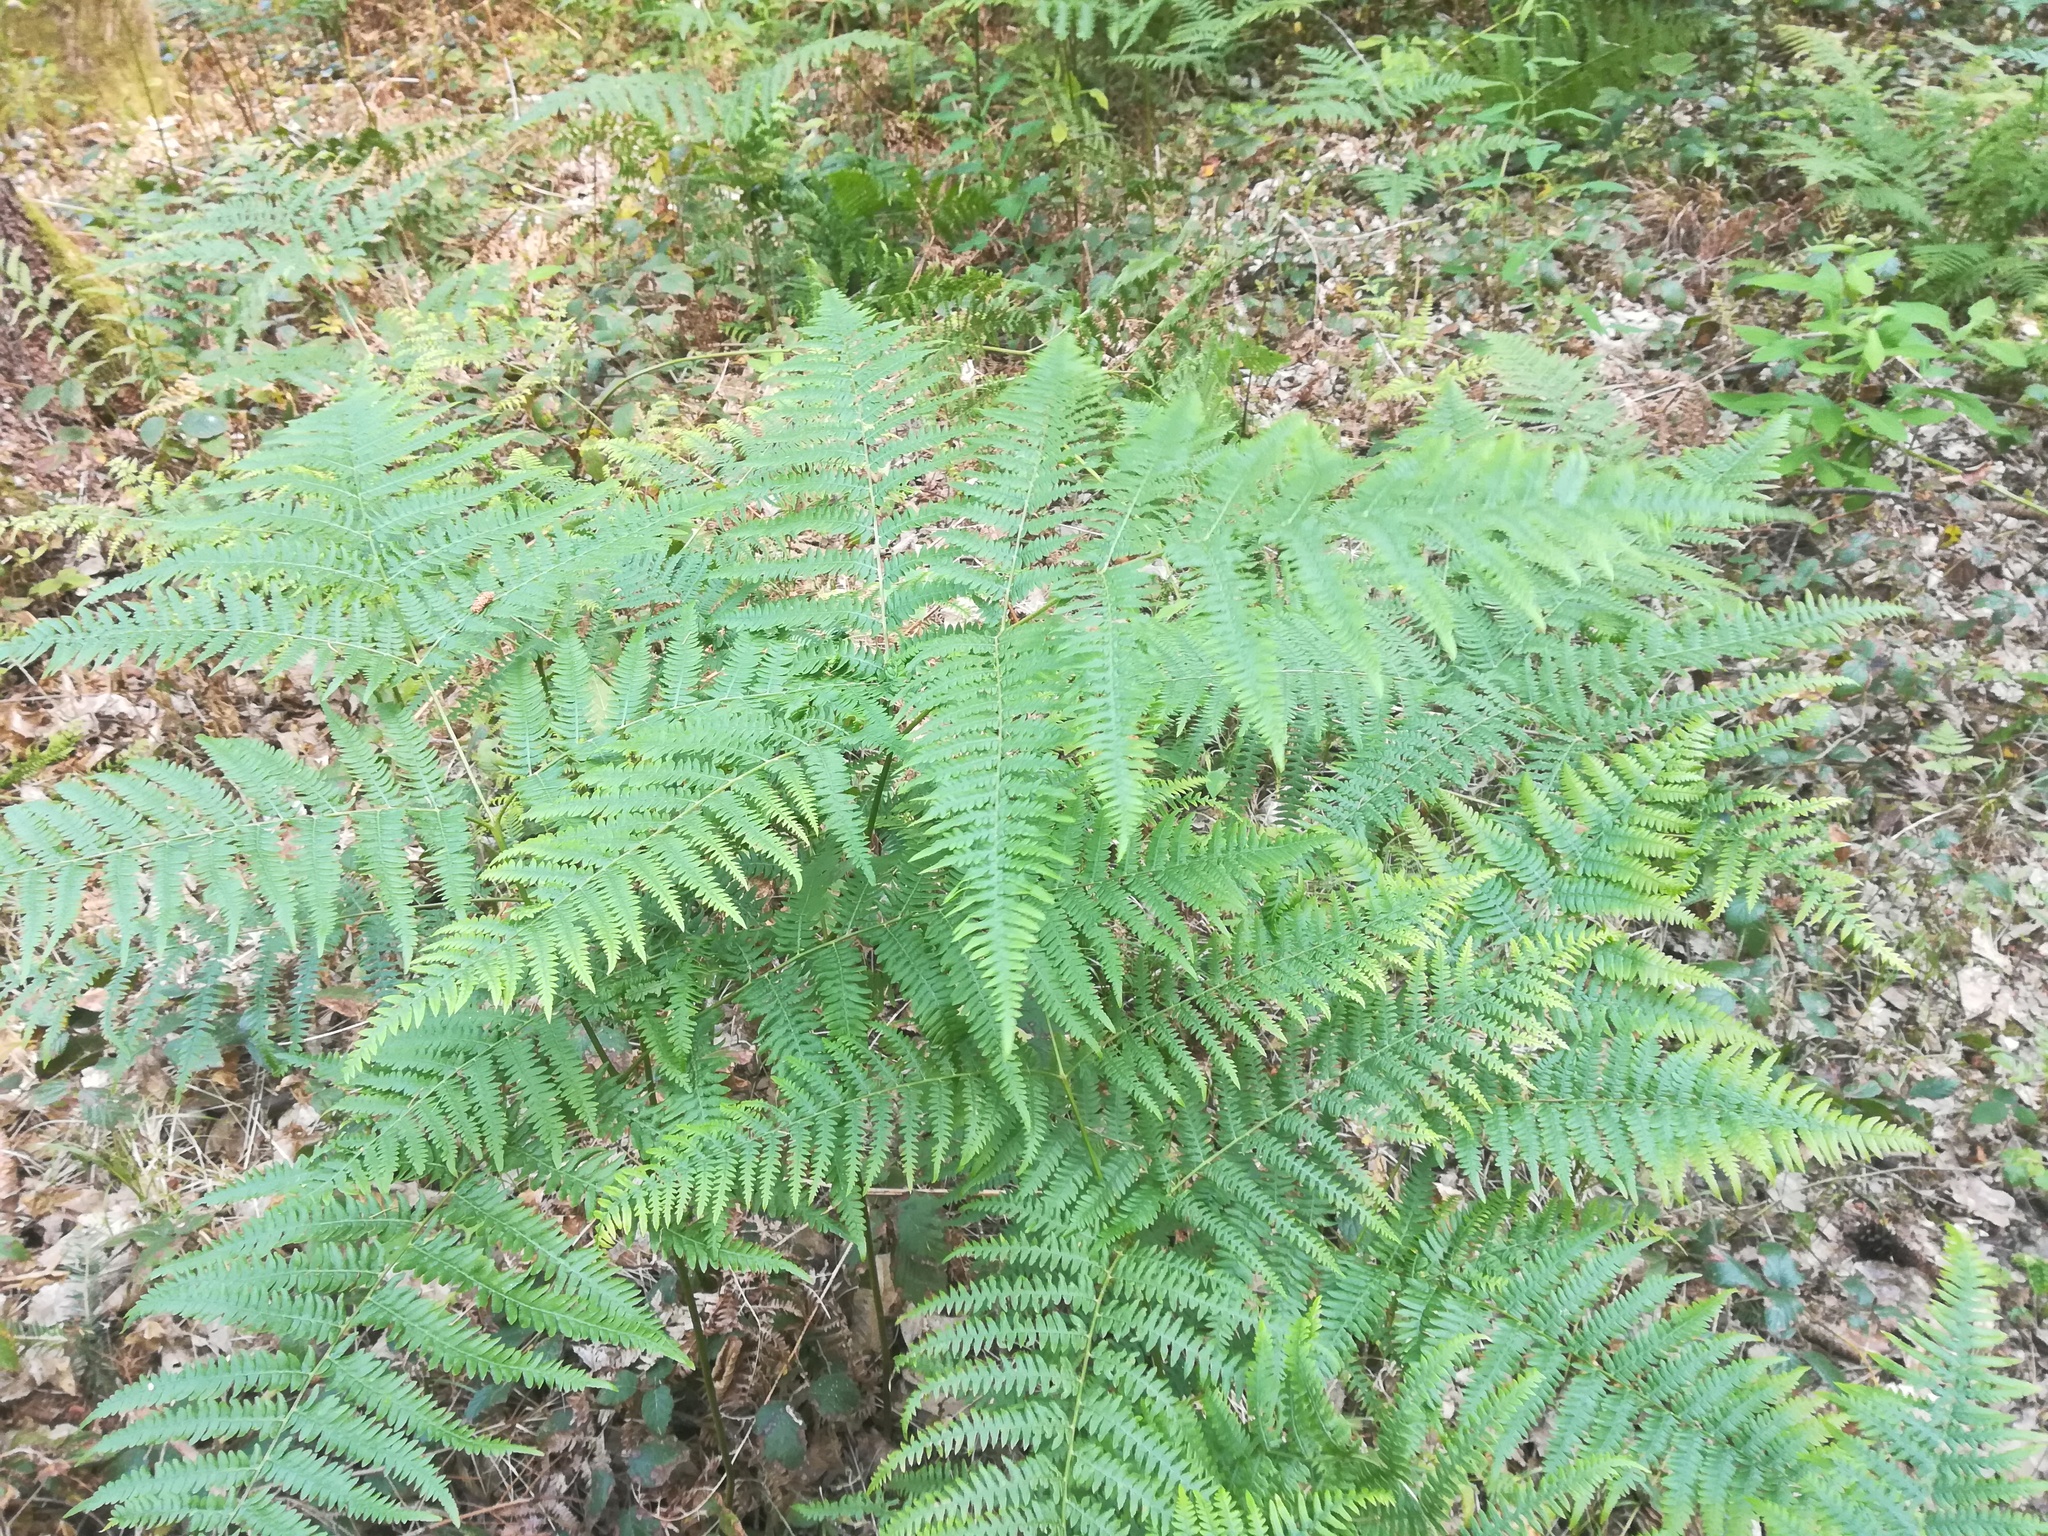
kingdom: Plantae
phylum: Tracheophyta
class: Polypodiopsida
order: Polypodiales
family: Dennstaedtiaceae
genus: Pteridium
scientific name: Pteridium aquilinum
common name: Bracken
